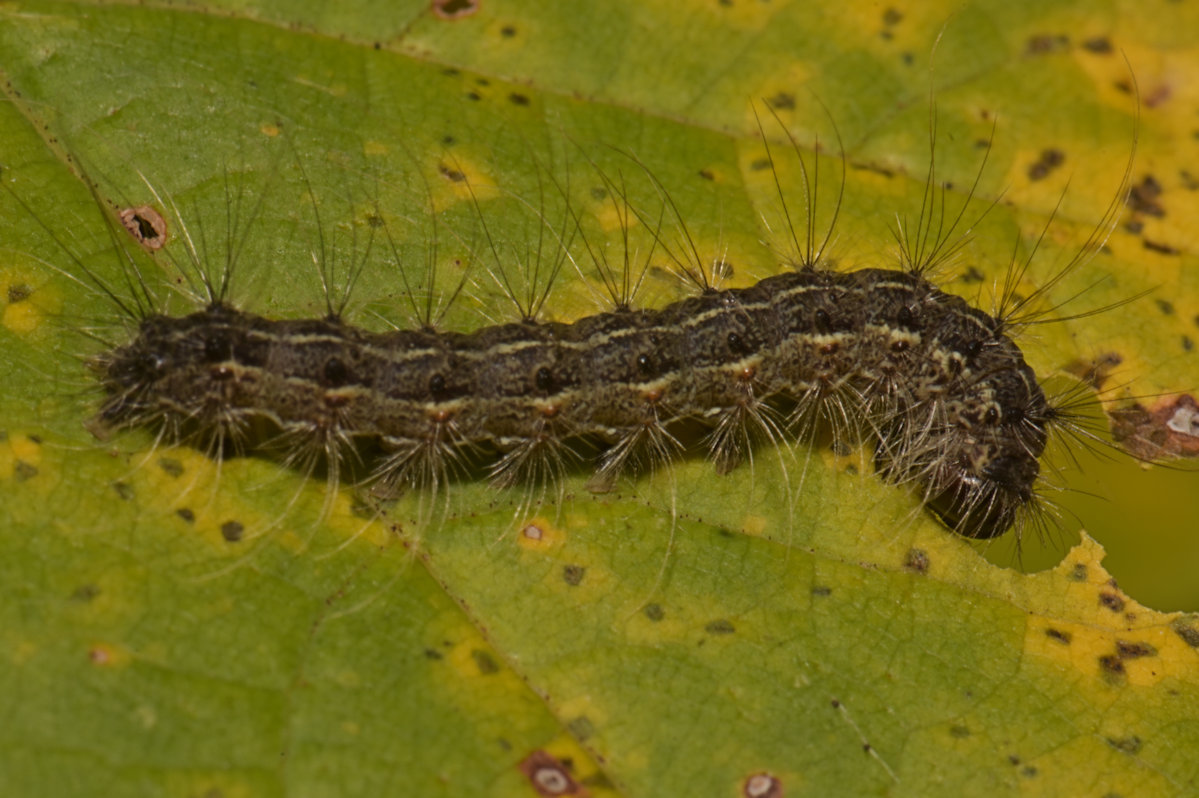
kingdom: Animalia
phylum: Arthropoda
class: Insecta
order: Lepidoptera
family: Erebidae
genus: Hyphantria
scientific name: Hyphantria cunea
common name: American white moth
